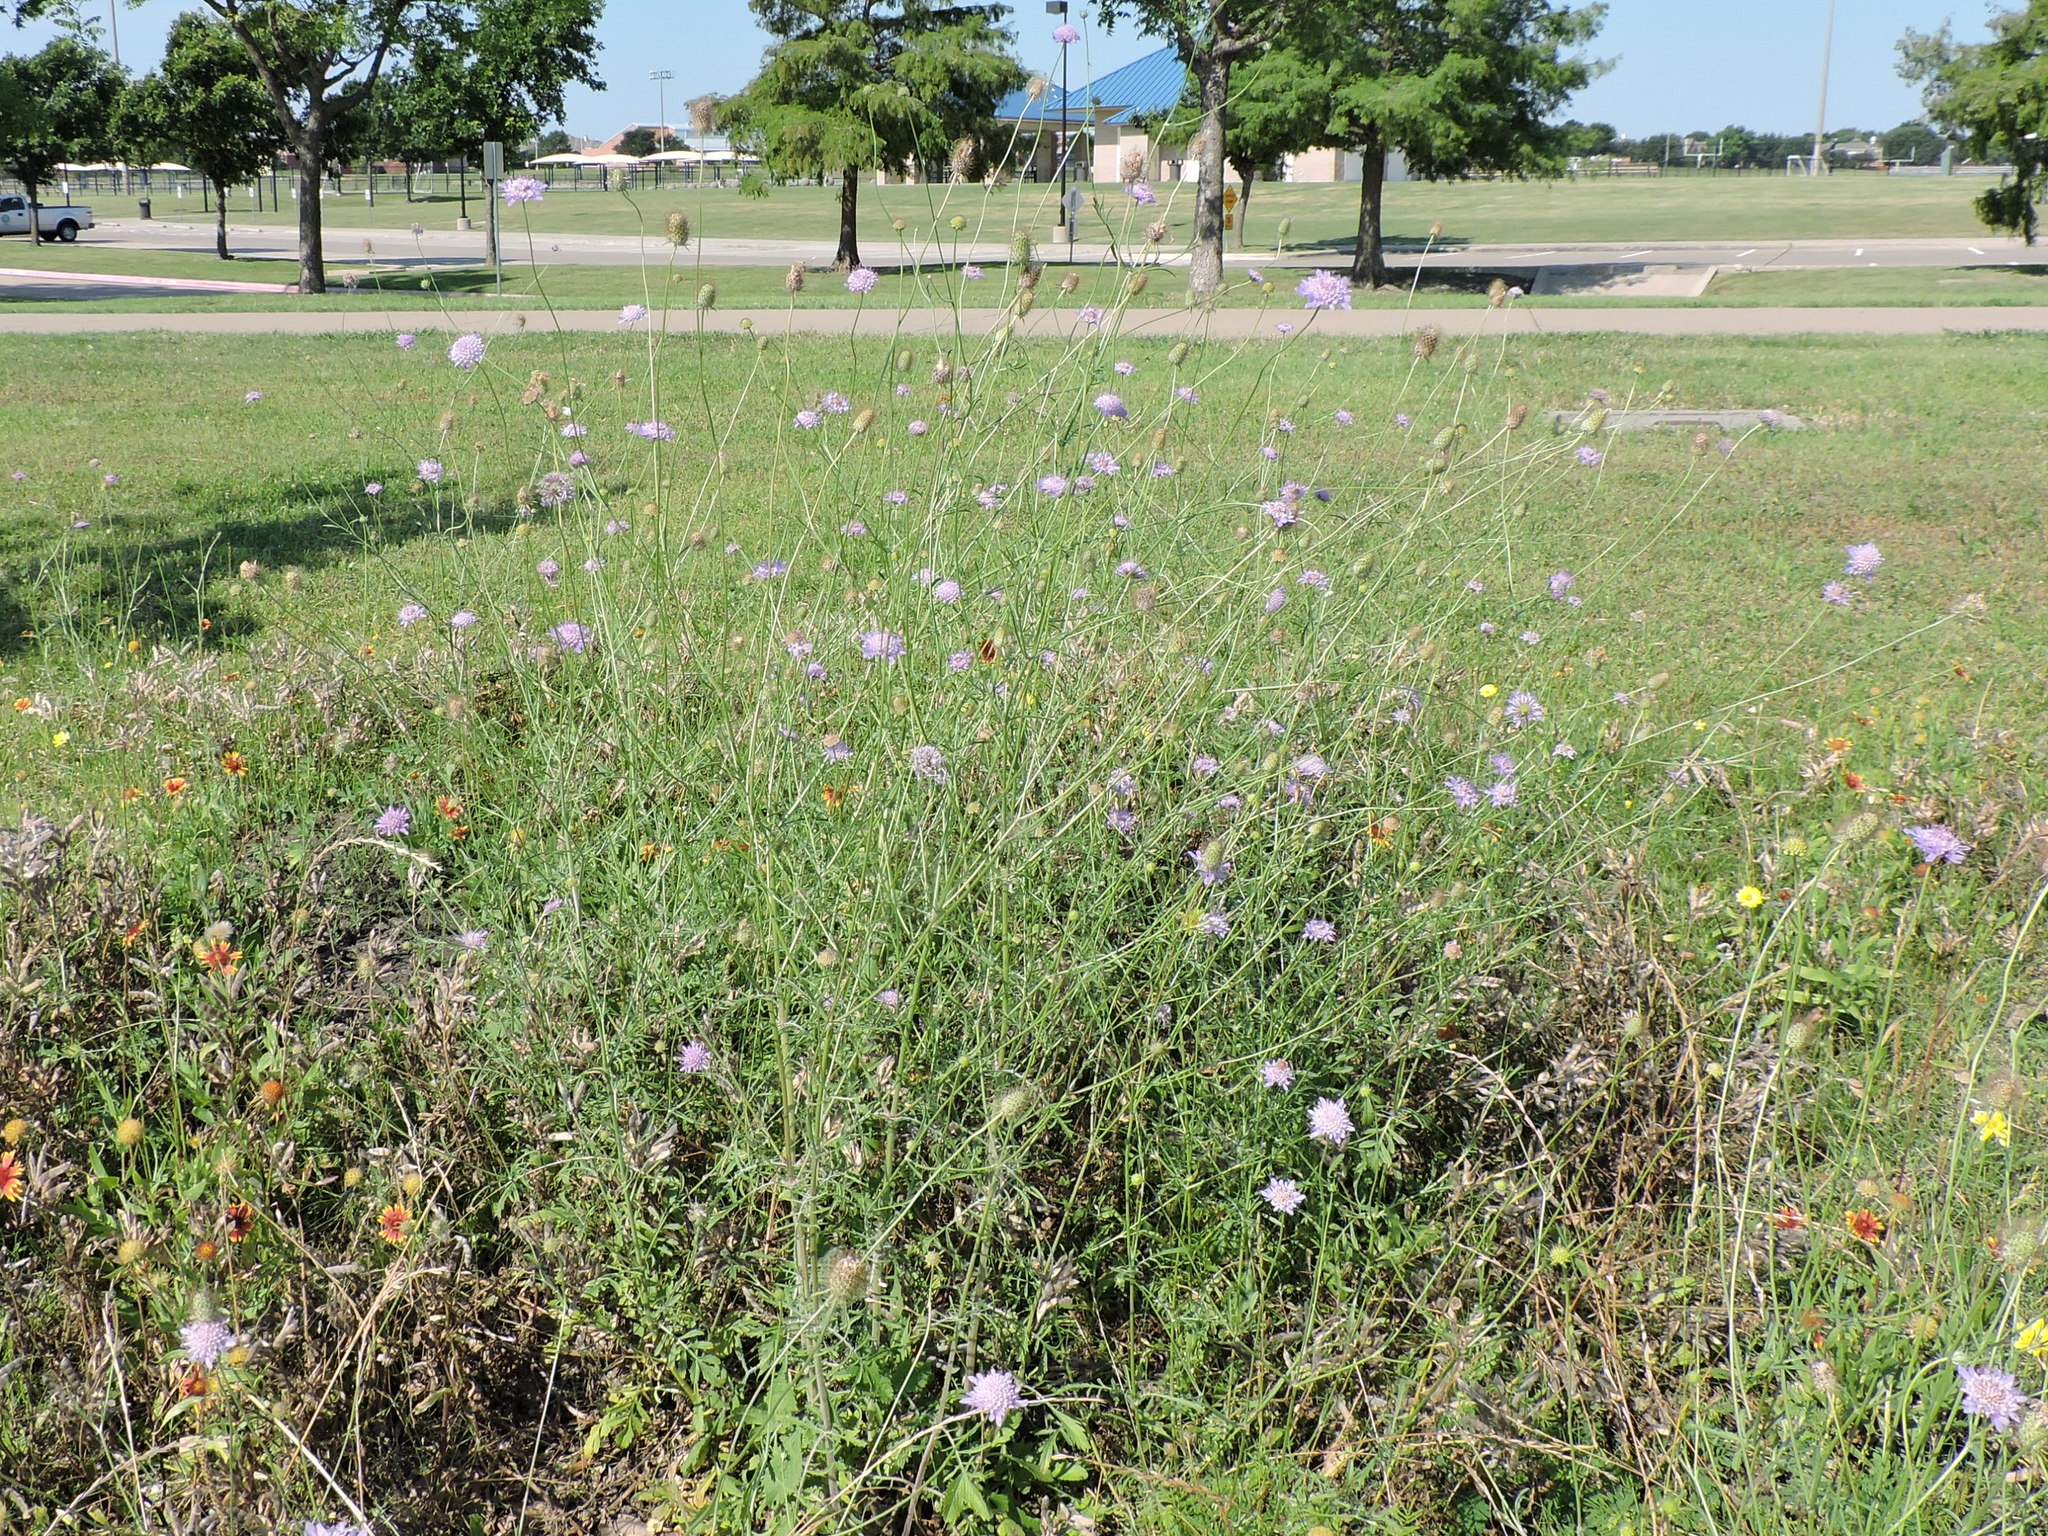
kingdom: Plantae
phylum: Tracheophyta
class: Magnoliopsida
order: Dipsacales
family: Caprifoliaceae
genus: Sixalix
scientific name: Sixalix atropurpurea
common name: Sweet scabious
